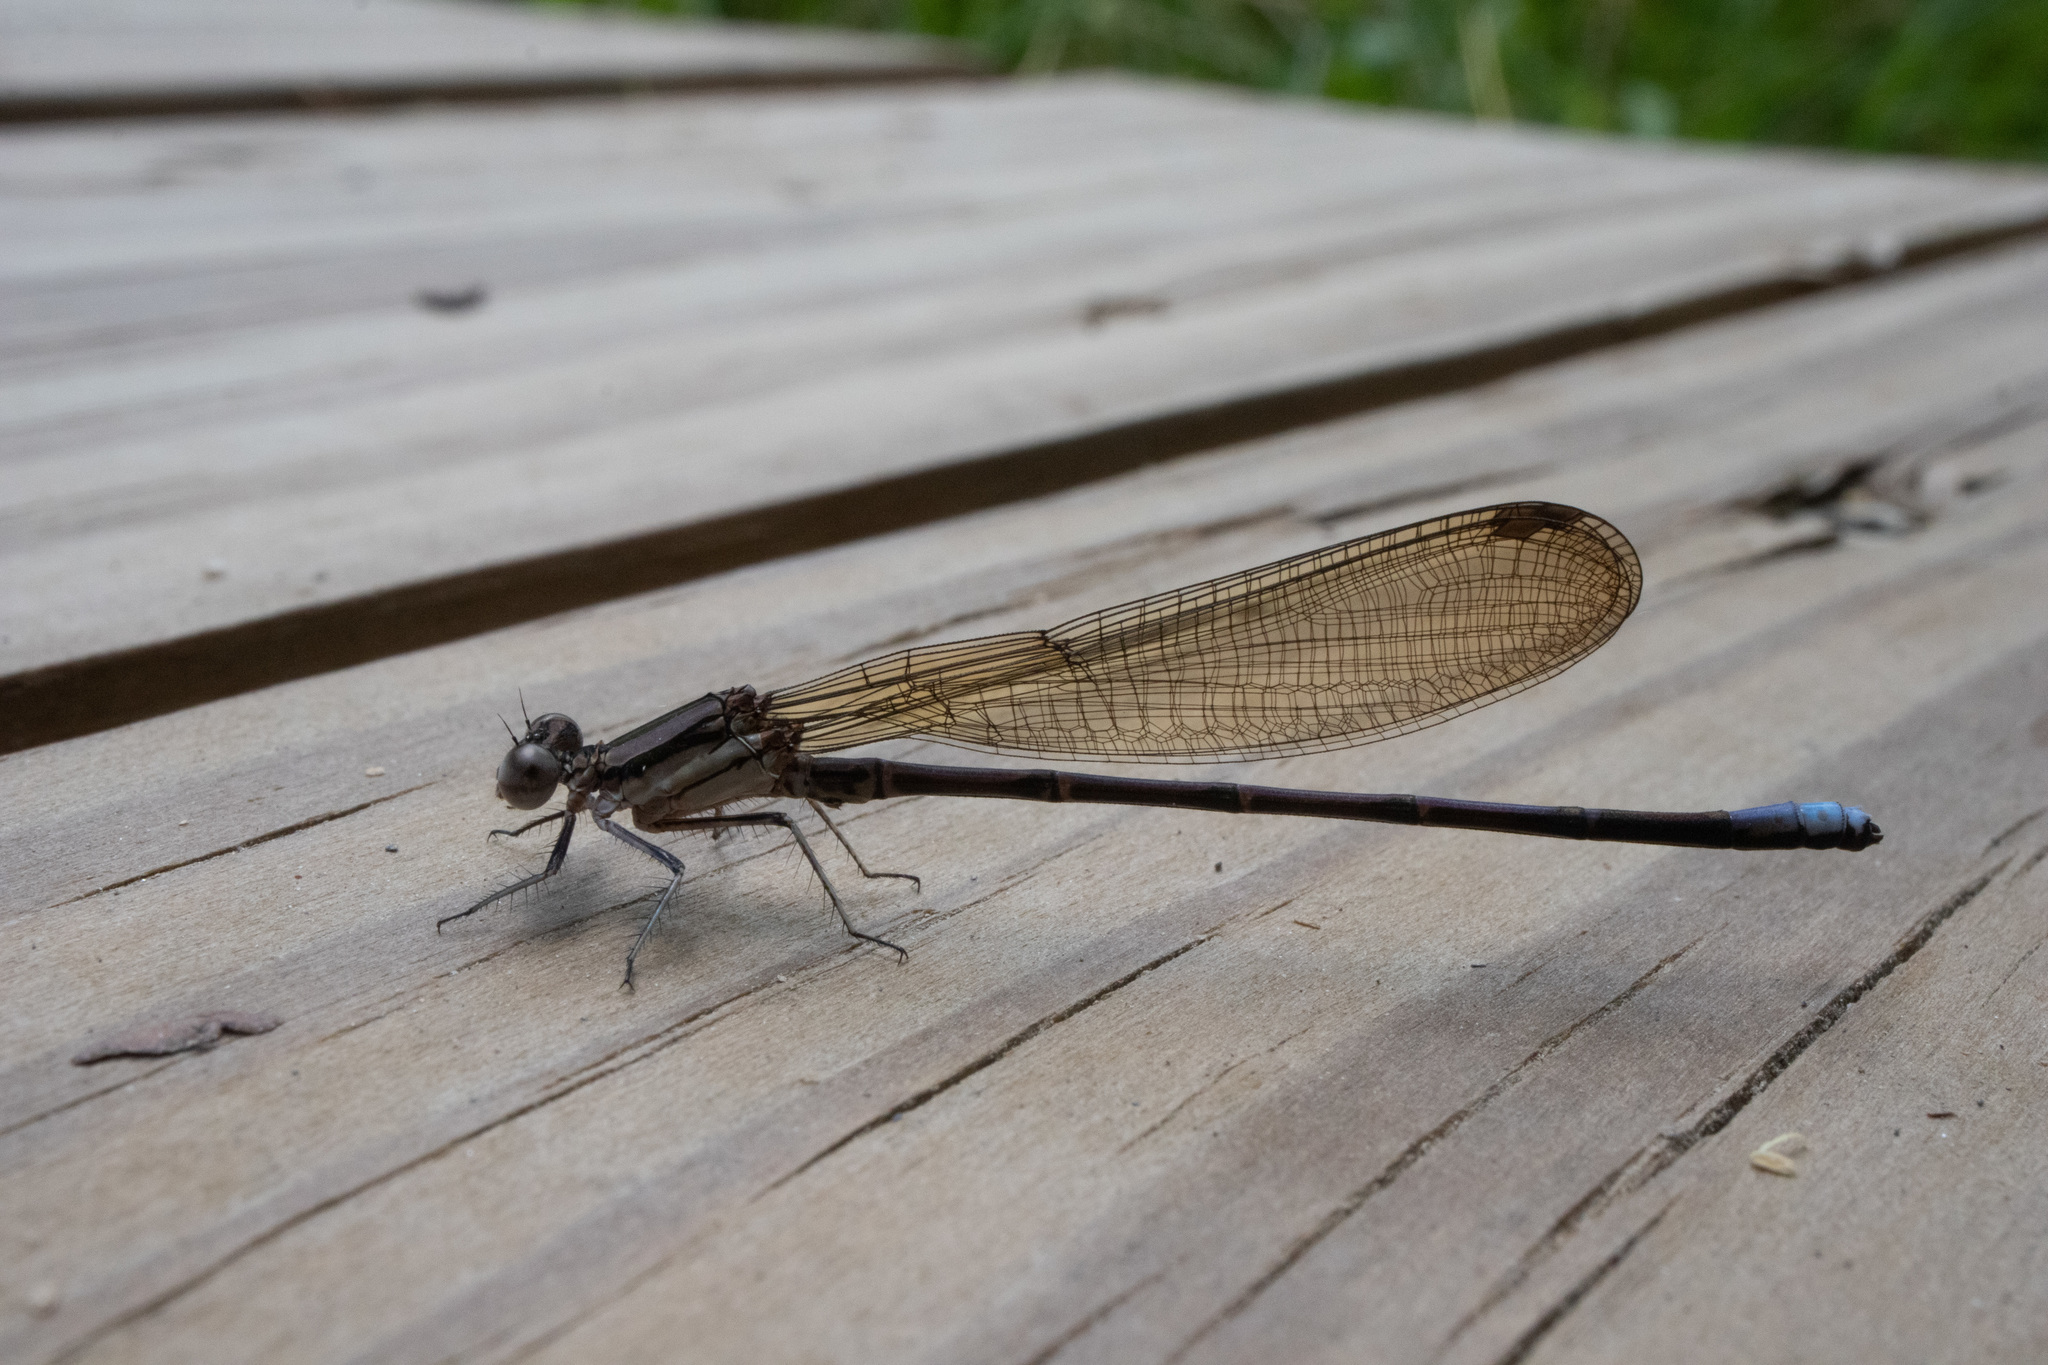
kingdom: Animalia
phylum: Arthropoda
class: Insecta
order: Odonata
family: Coenagrionidae
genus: Argia
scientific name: Argia fumipennis
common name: Variable dancer
